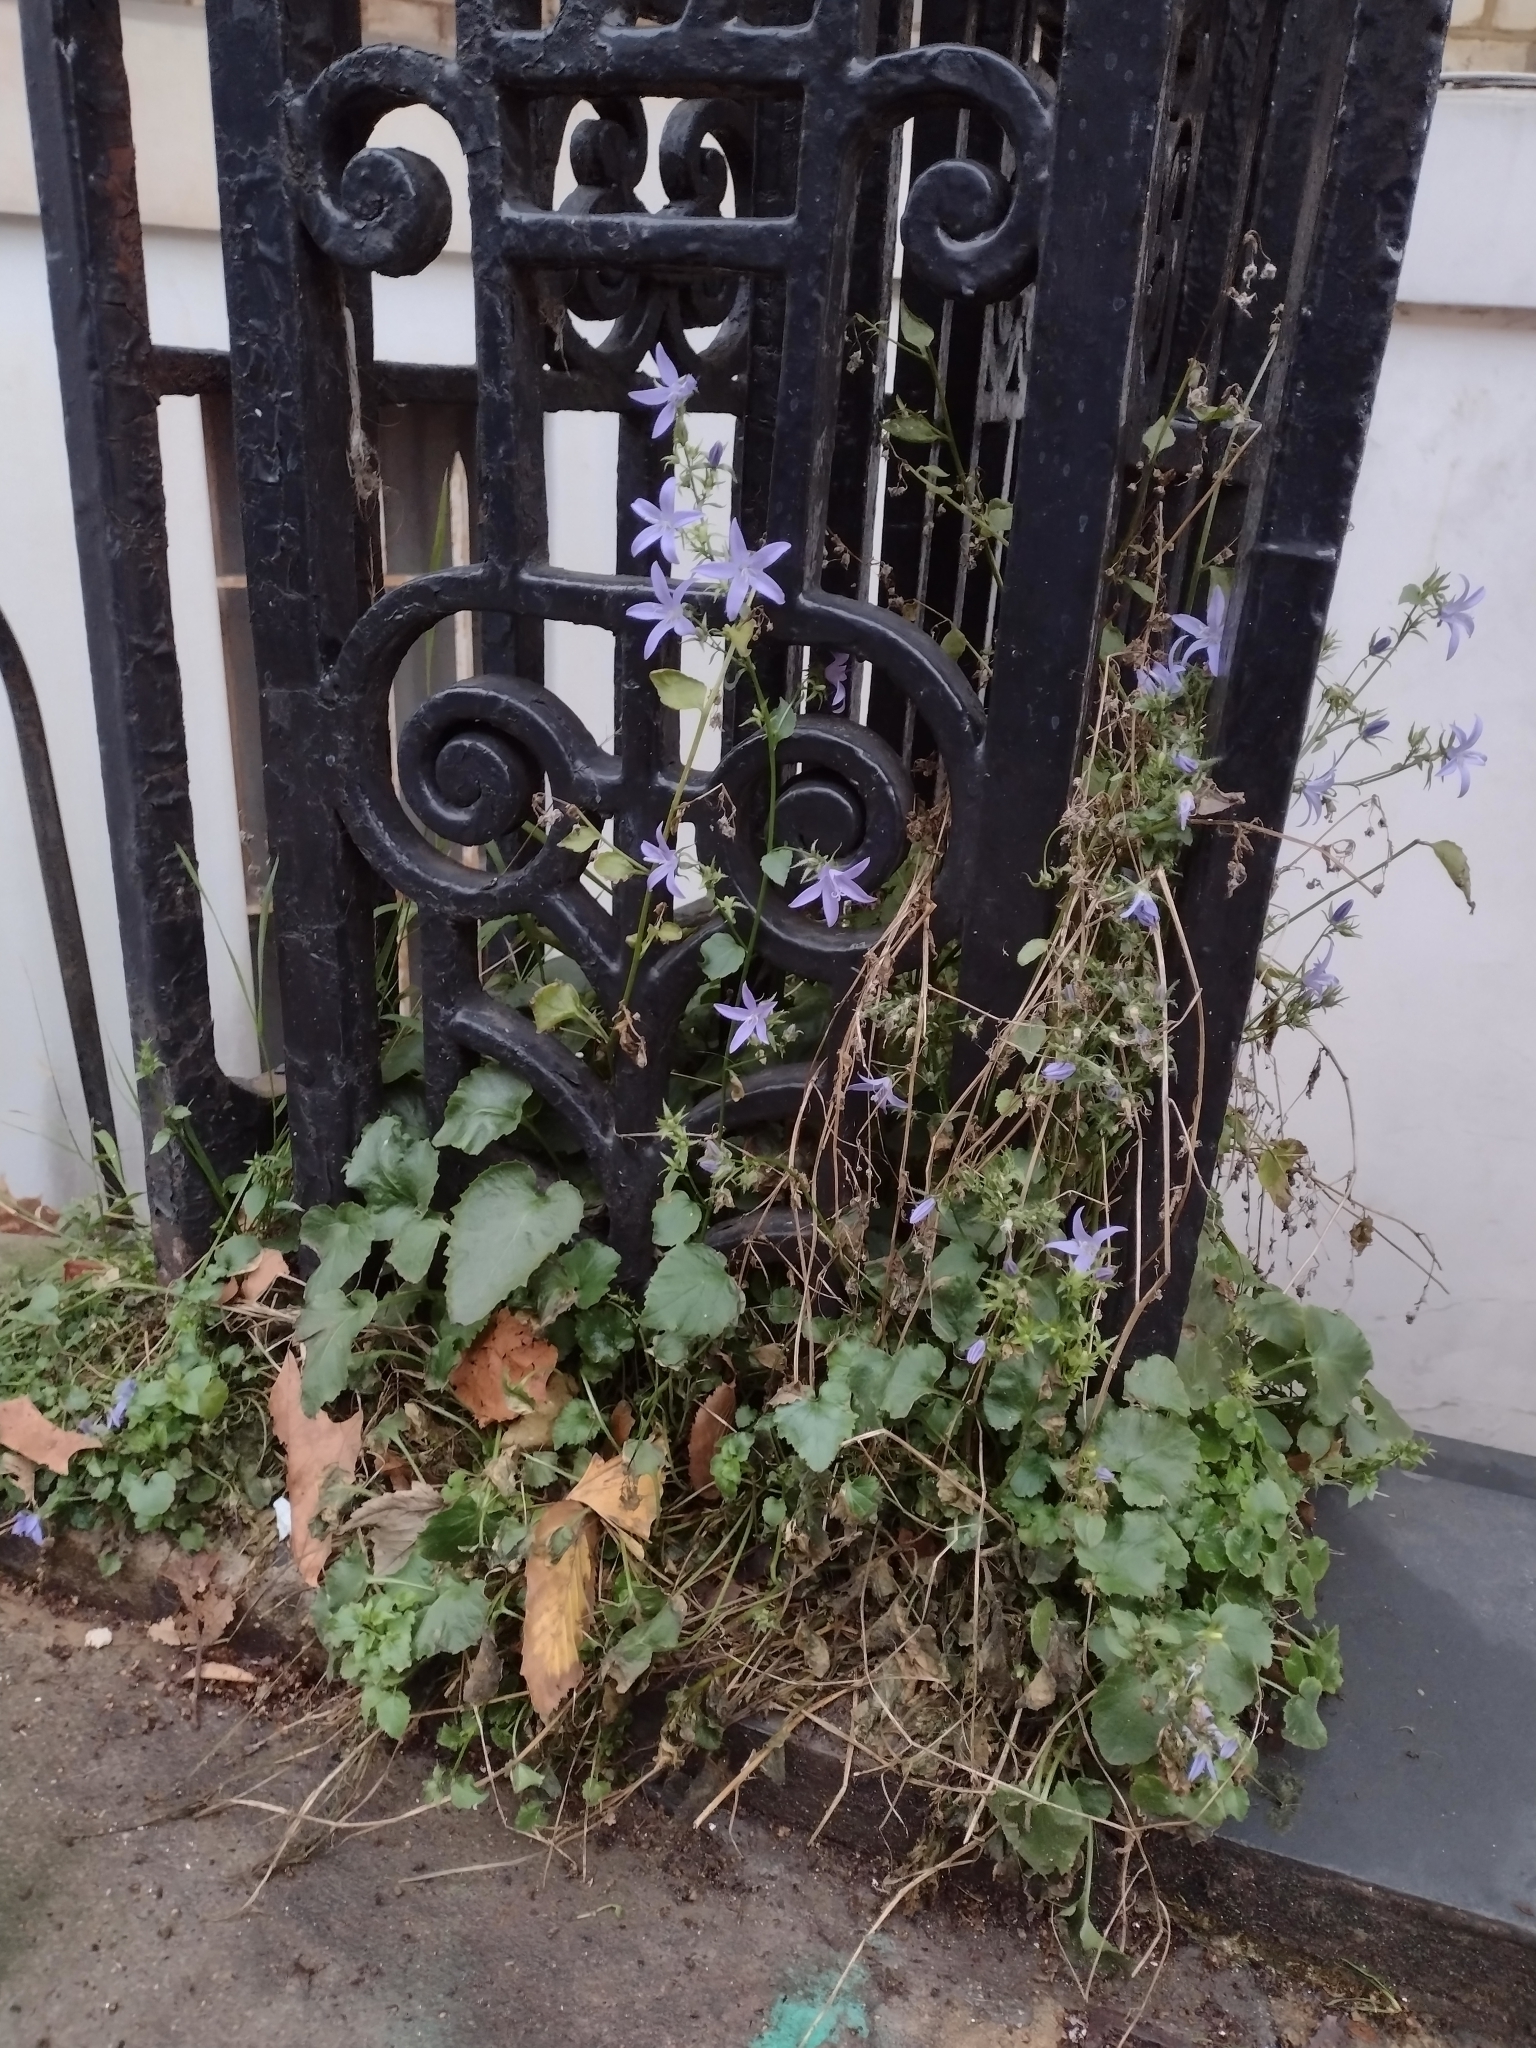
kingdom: Plantae
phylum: Tracheophyta
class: Magnoliopsida
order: Asterales
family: Campanulaceae
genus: Campanula
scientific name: Campanula poscharskyana
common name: Trailing bellflower
